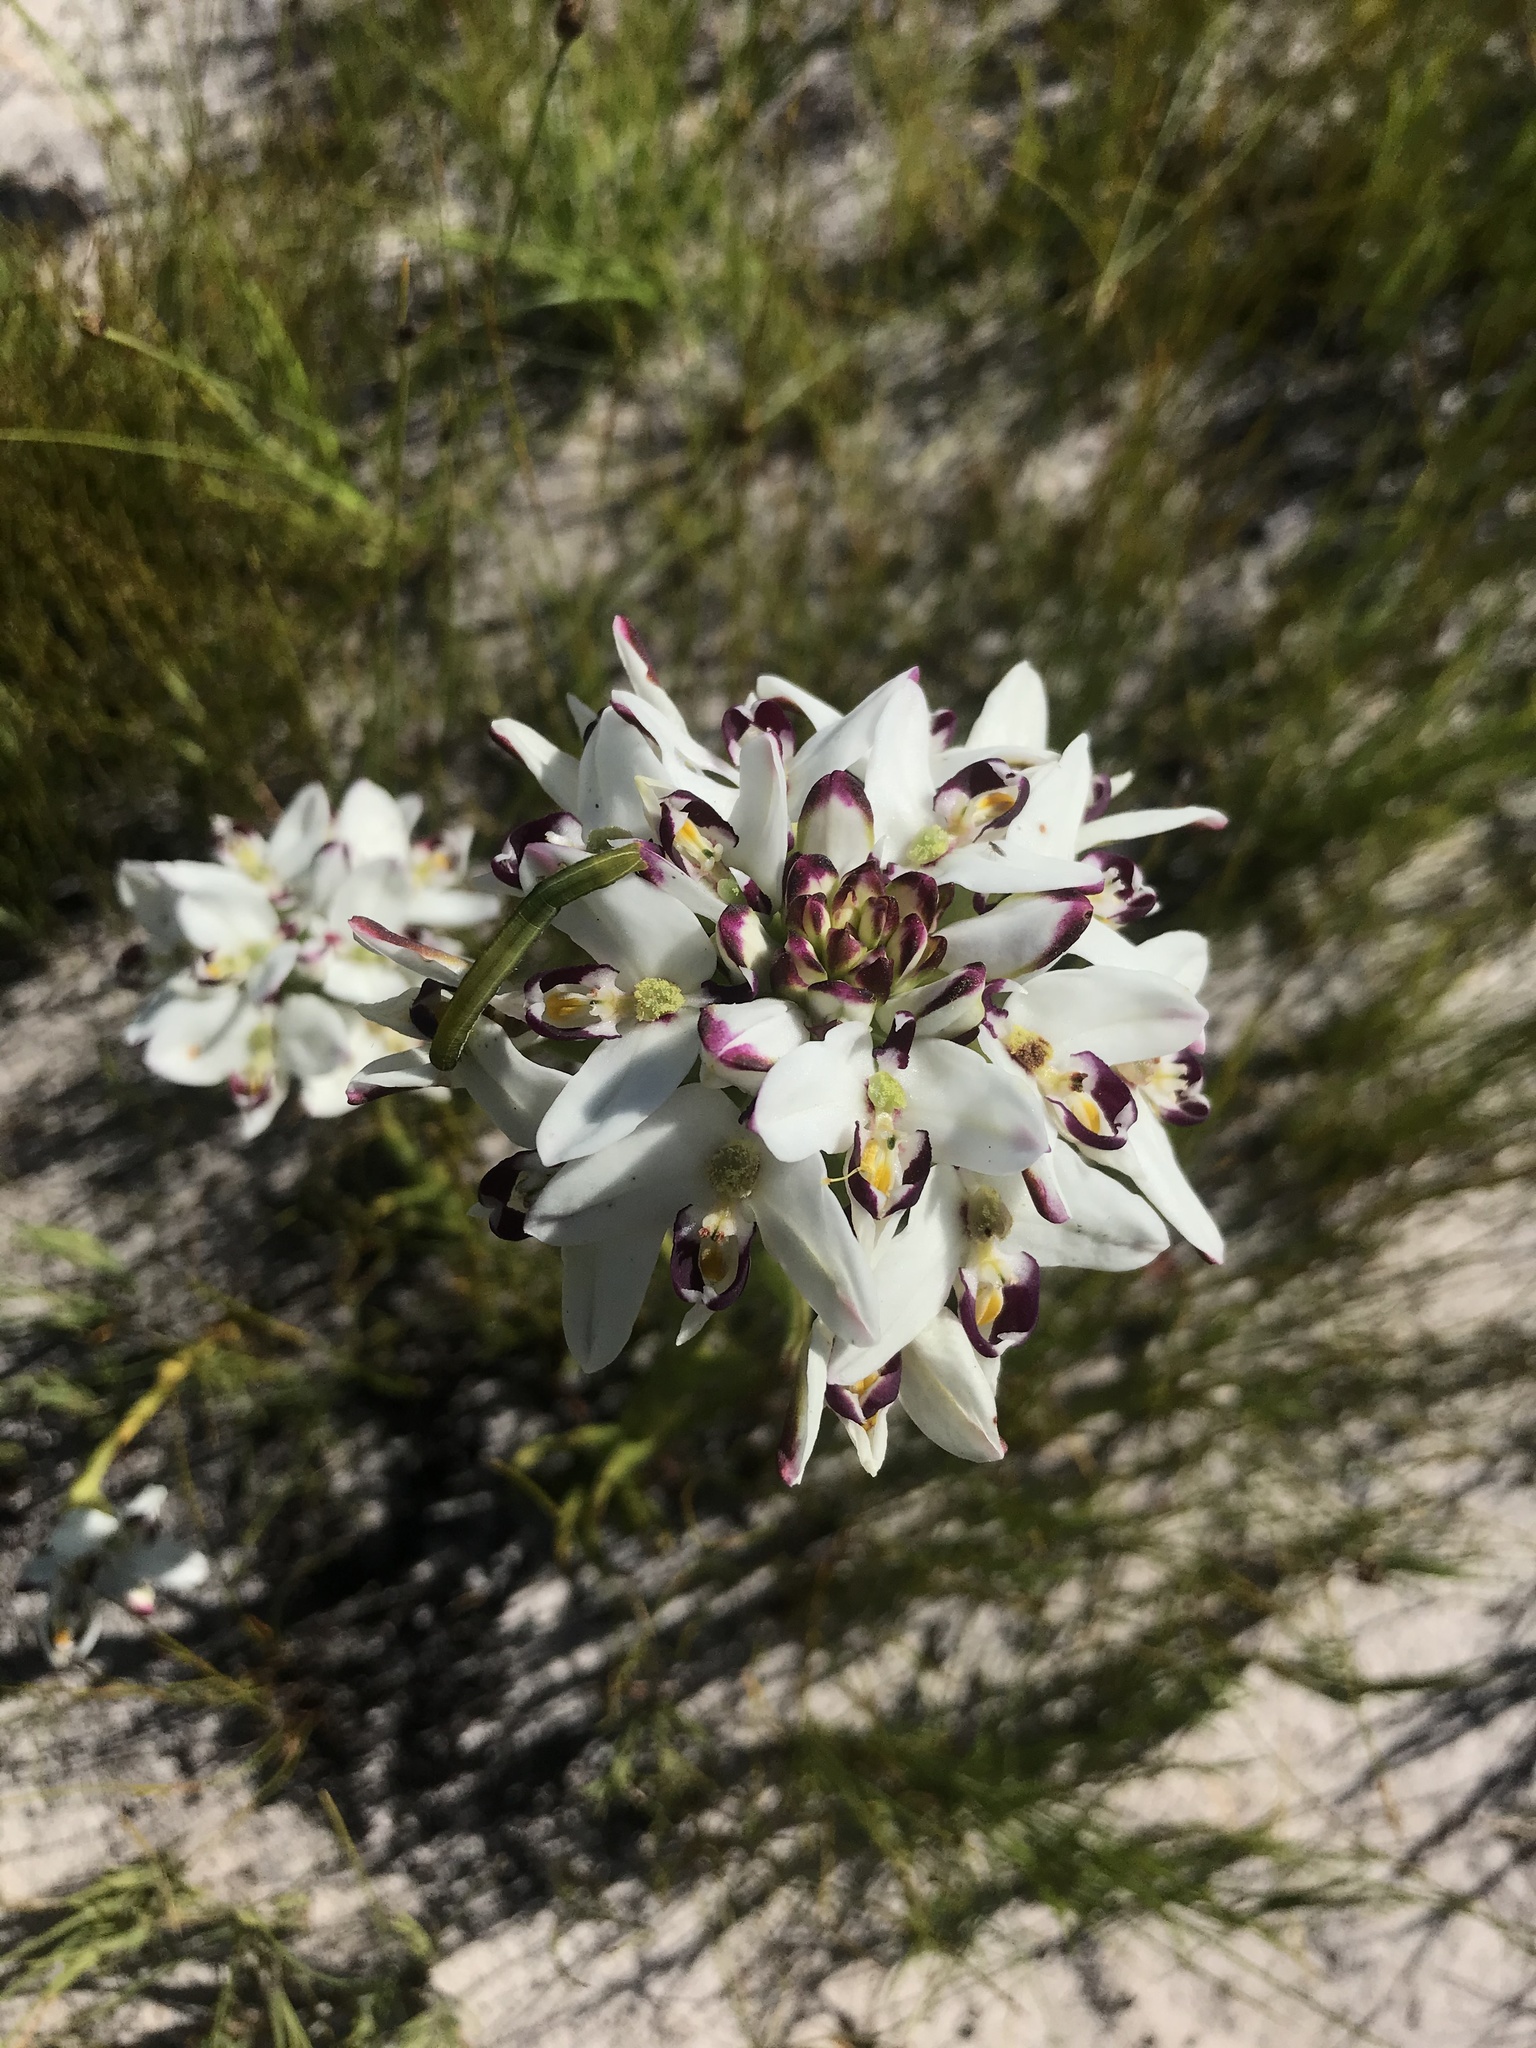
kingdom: Plantae
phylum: Tracheophyta
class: Liliopsida
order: Asparagales
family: Orchidaceae
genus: Disa
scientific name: Disa bivalvata
